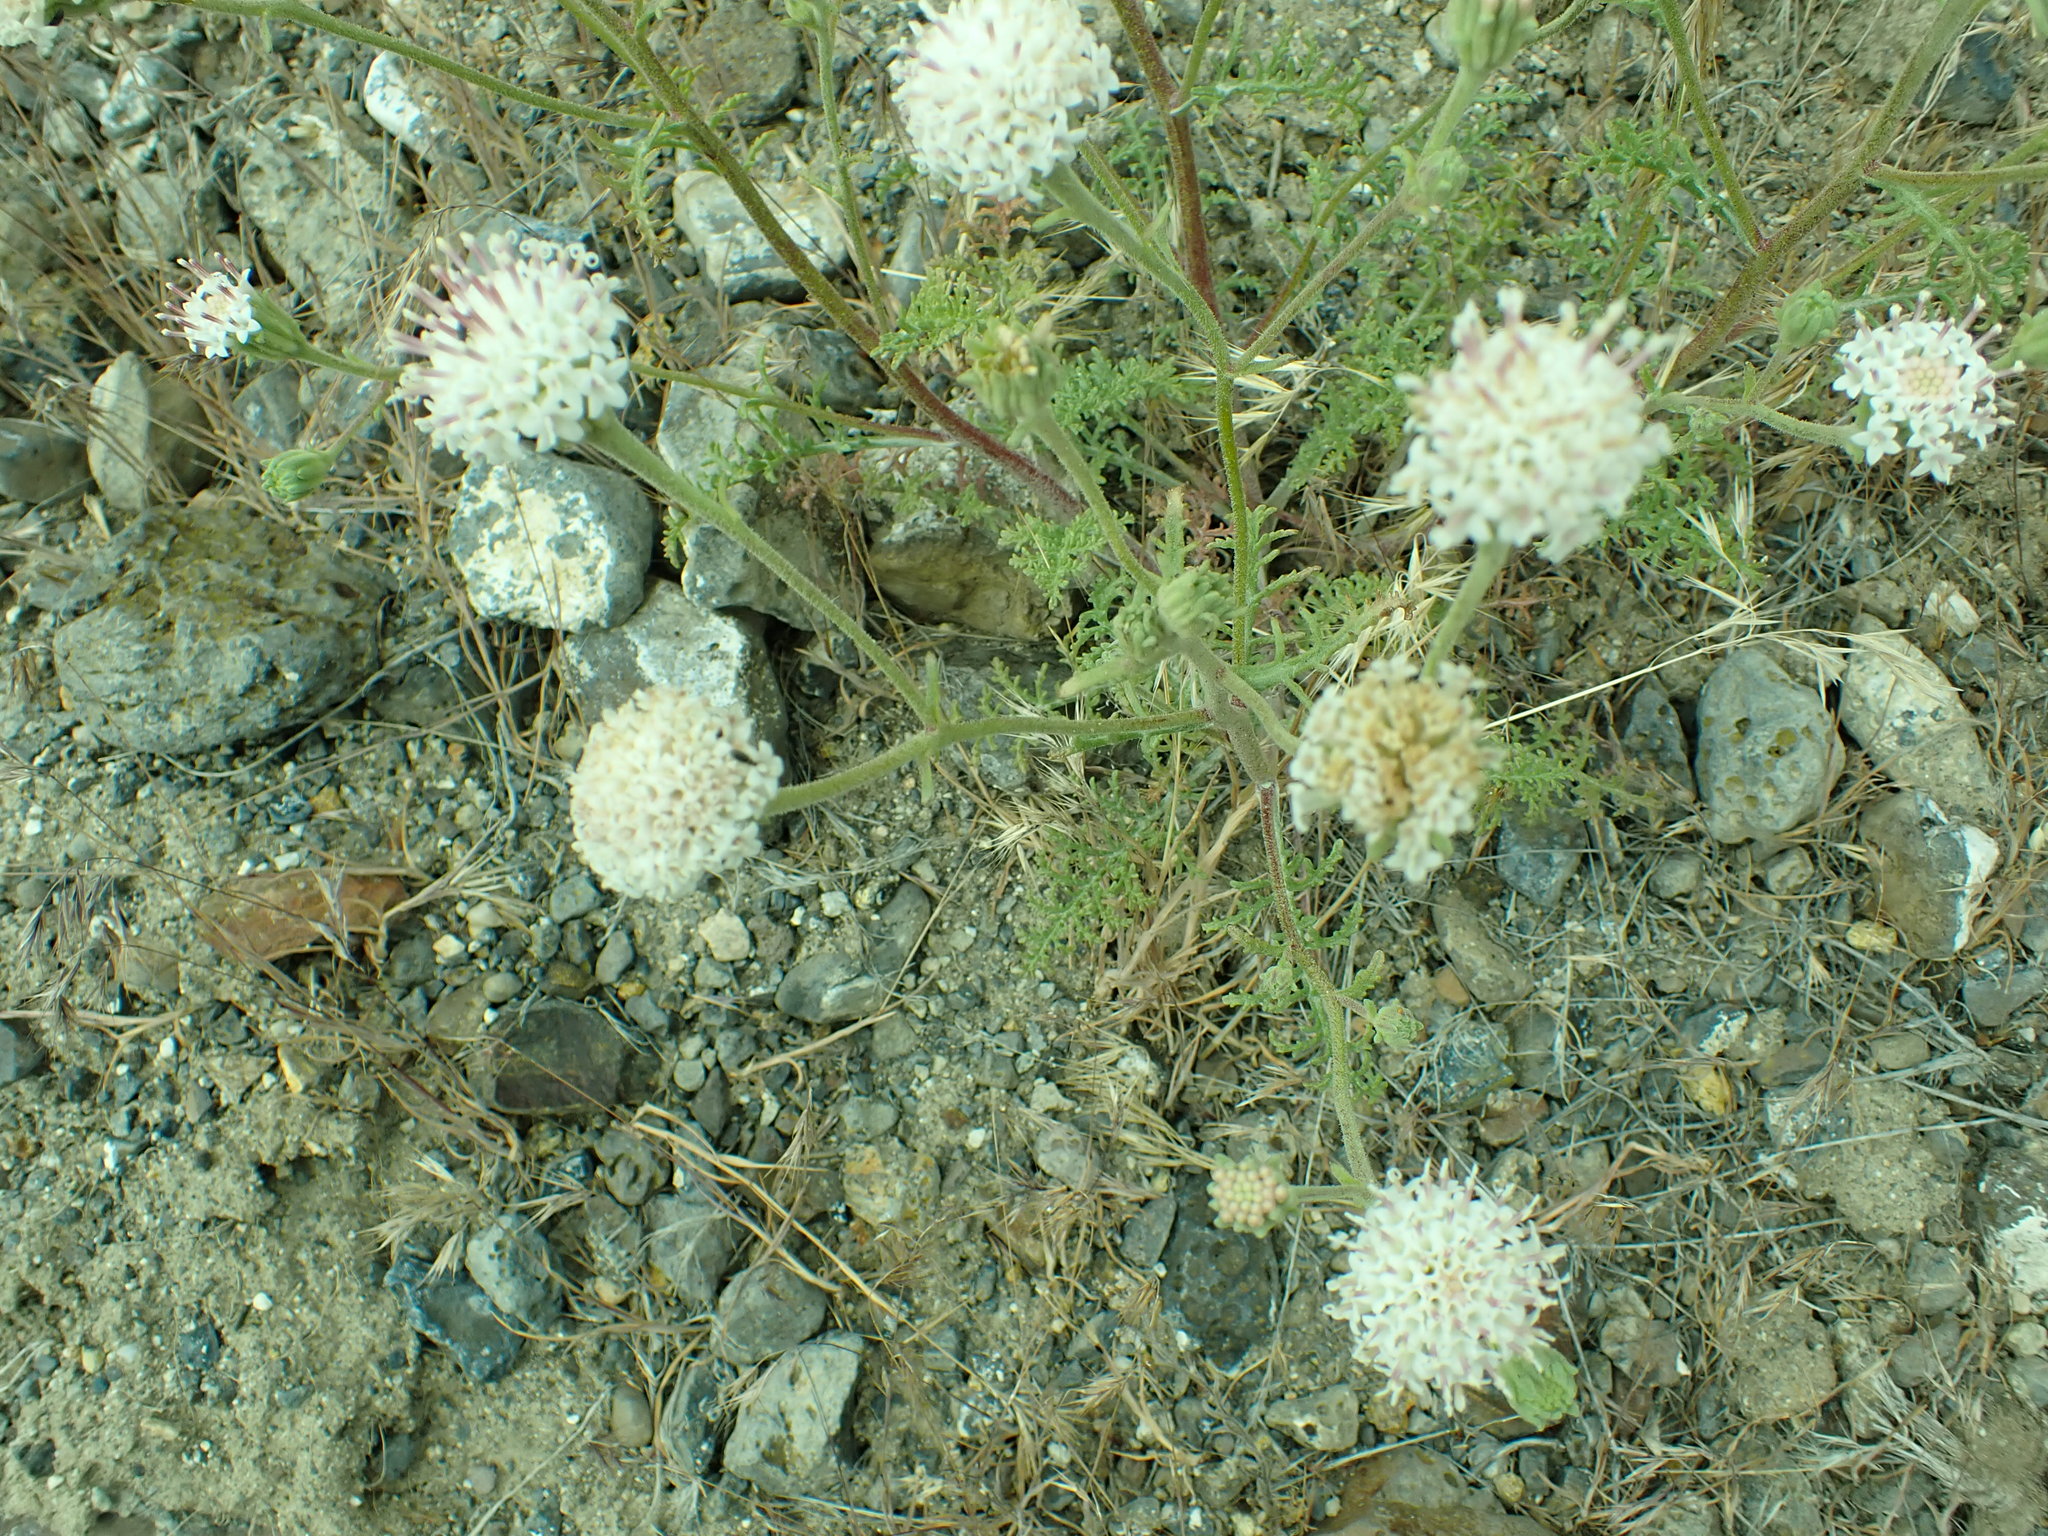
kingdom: Plantae
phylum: Tracheophyta
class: Magnoliopsida
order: Asterales
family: Asteraceae
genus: Chaenactis
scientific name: Chaenactis douglasii
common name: Hoary pincushion
